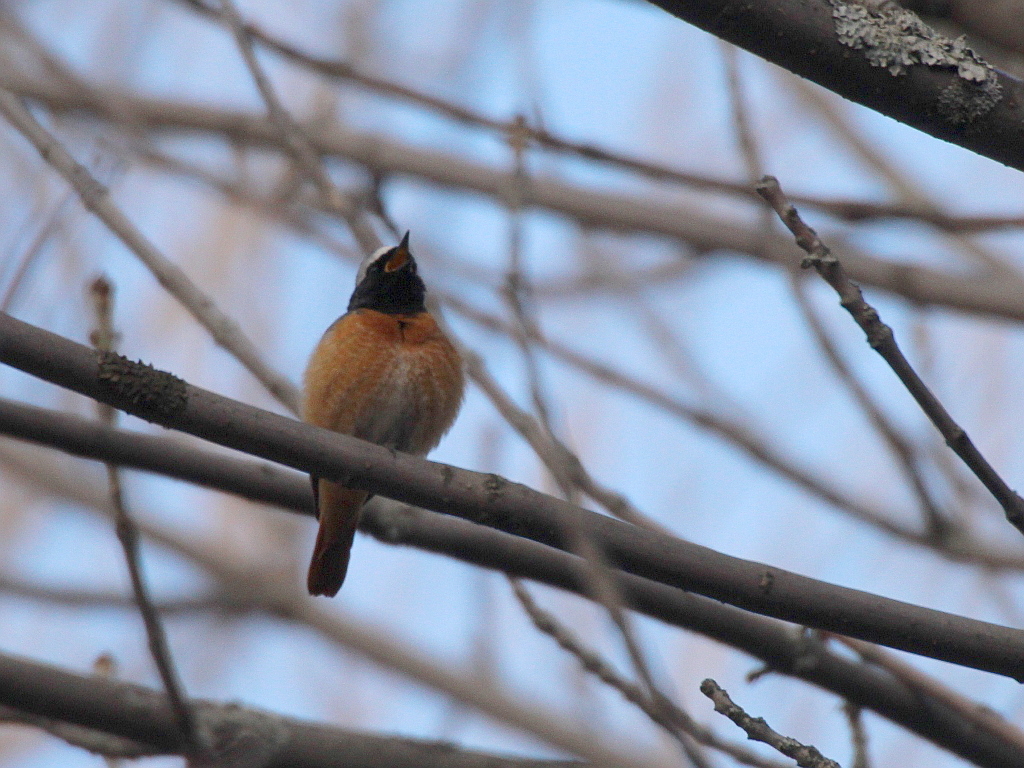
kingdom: Animalia
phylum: Chordata
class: Aves
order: Passeriformes
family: Muscicapidae
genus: Phoenicurus
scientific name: Phoenicurus phoenicurus
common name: Common redstart
